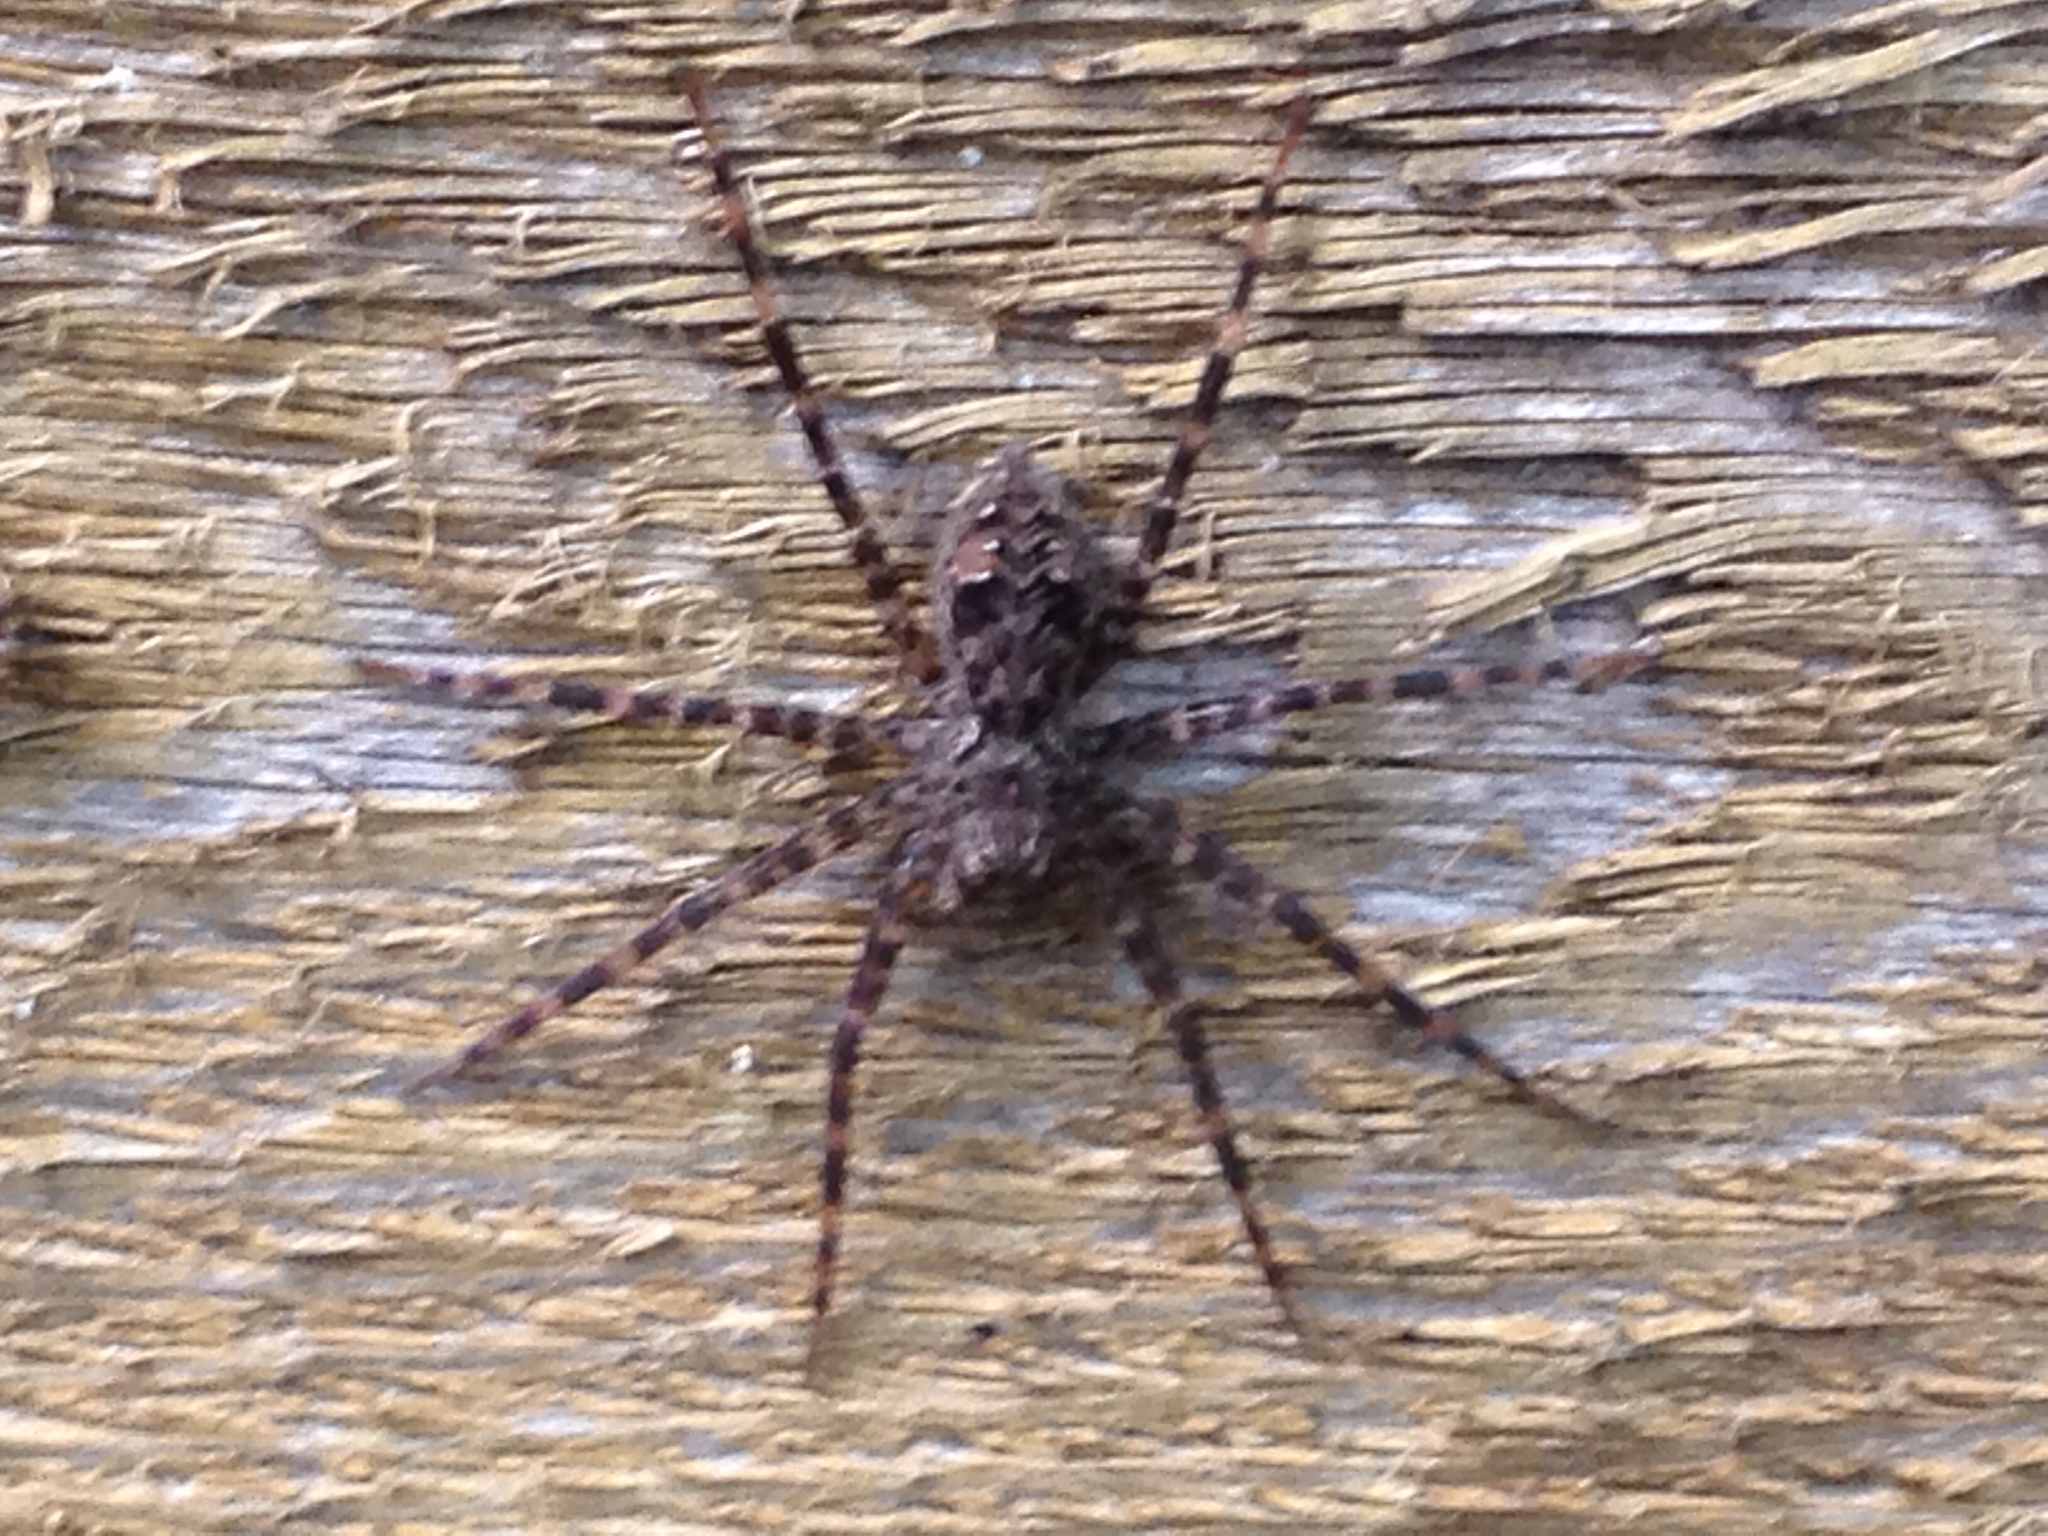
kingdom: Animalia
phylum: Arthropoda
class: Arachnida
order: Araneae
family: Pisauridae
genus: Dolomedes
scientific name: Dolomedes tenebrosus
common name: Dark fishing spider
